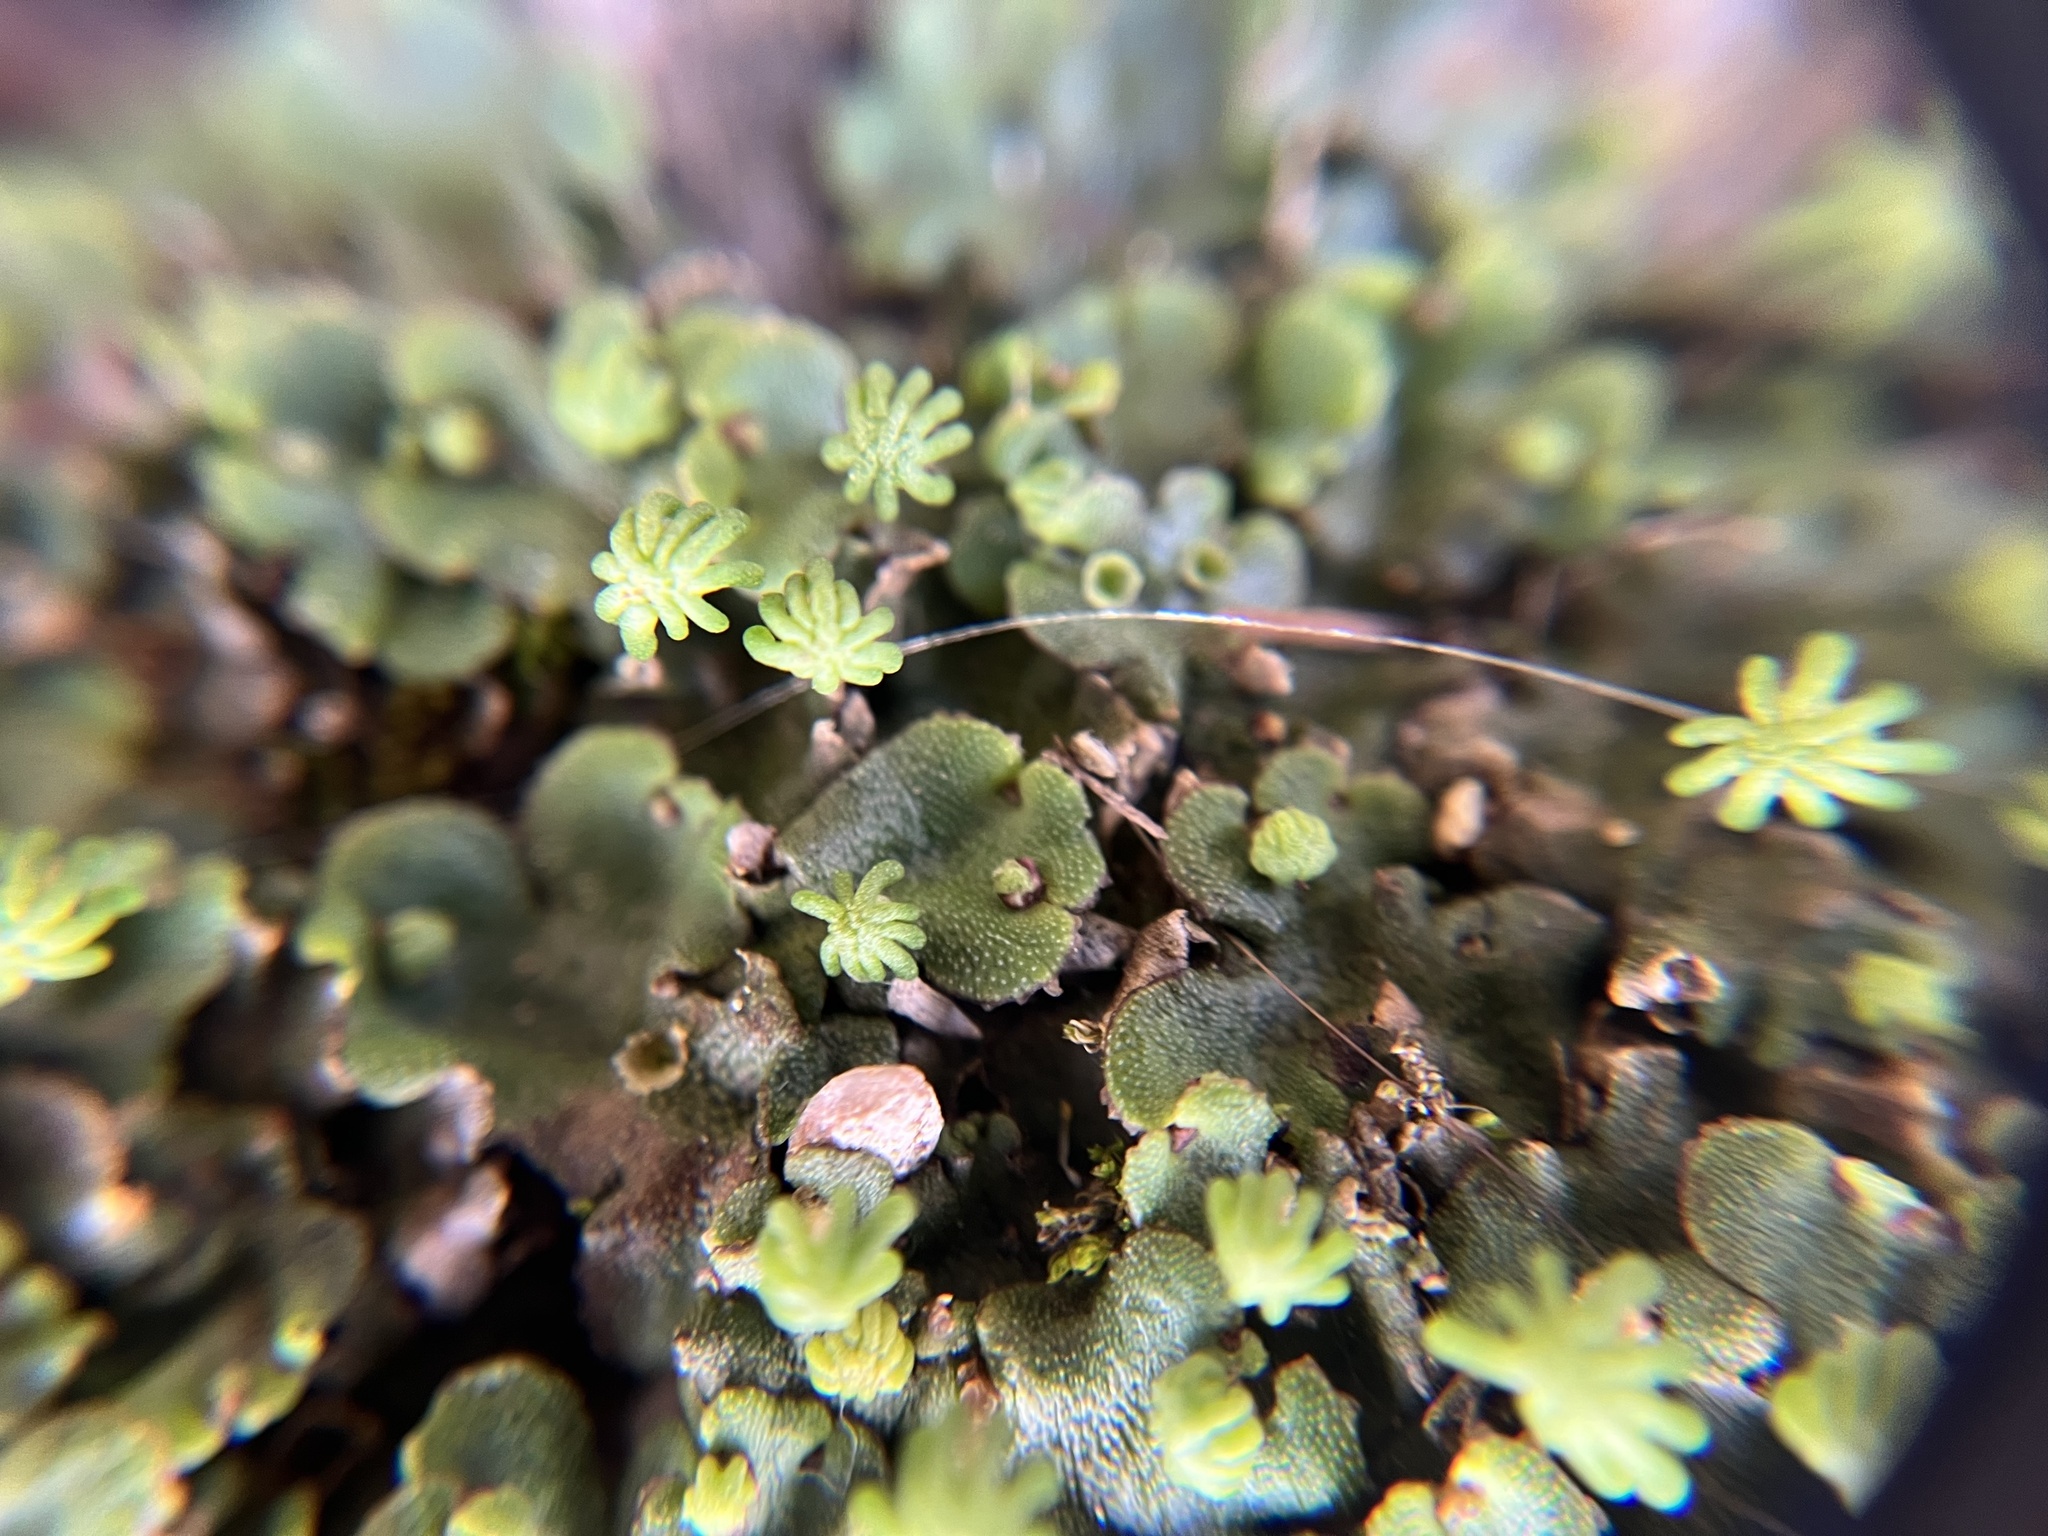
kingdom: Plantae
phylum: Marchantiophyta
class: Marchantiopsida
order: Marchantiales
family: Marchantiaceae
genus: Marchantia
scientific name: Marchantia polymorpha
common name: Common liverwort
